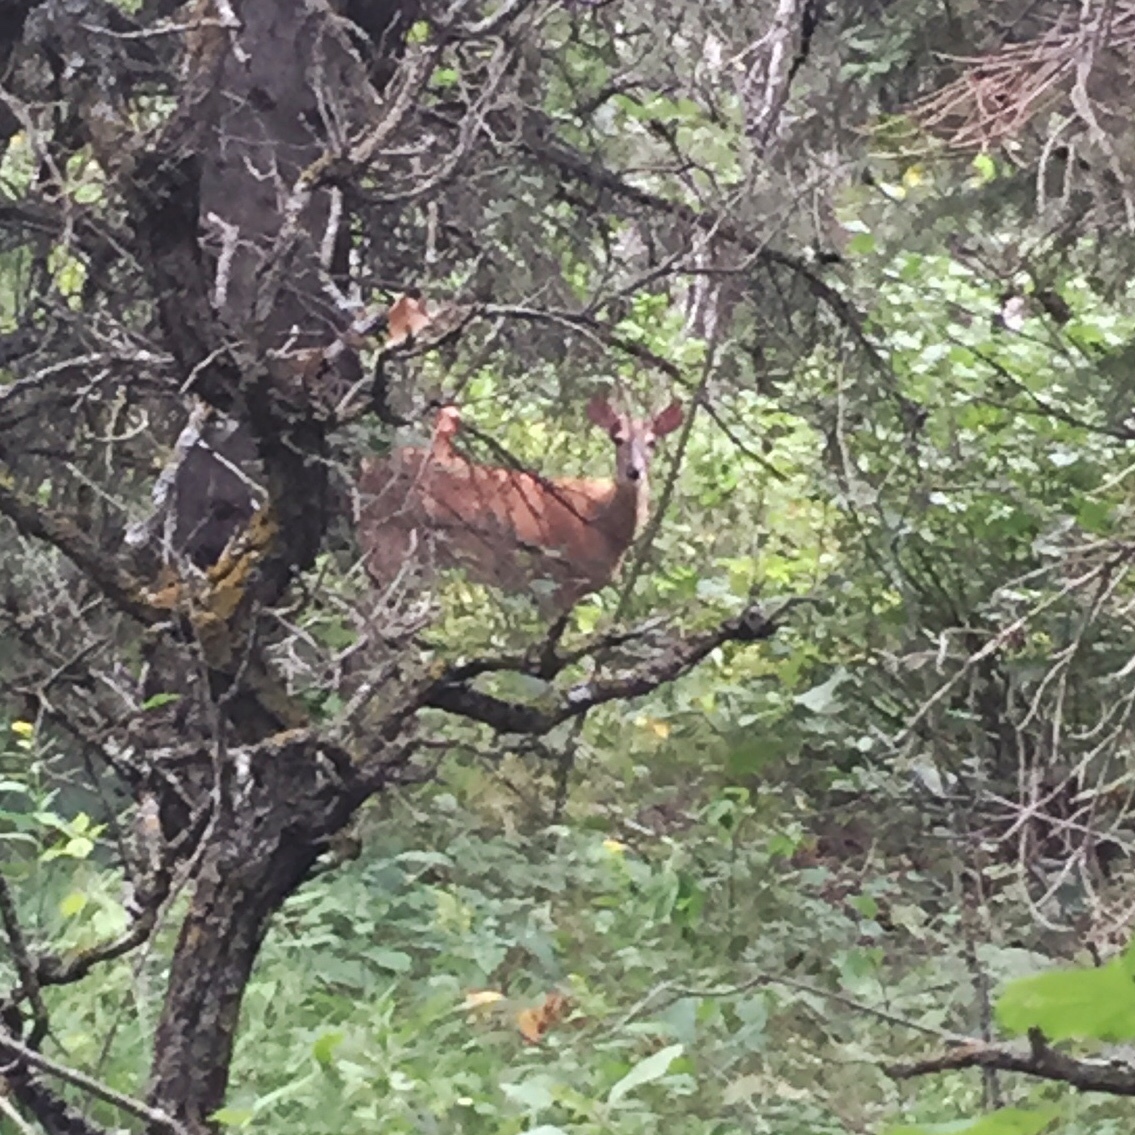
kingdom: Animalia
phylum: Chordata
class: Mammalia
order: Artiodactyla
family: Cervidae
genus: Odocoileus
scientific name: Odocoileus virginianus
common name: White-tailed deer
